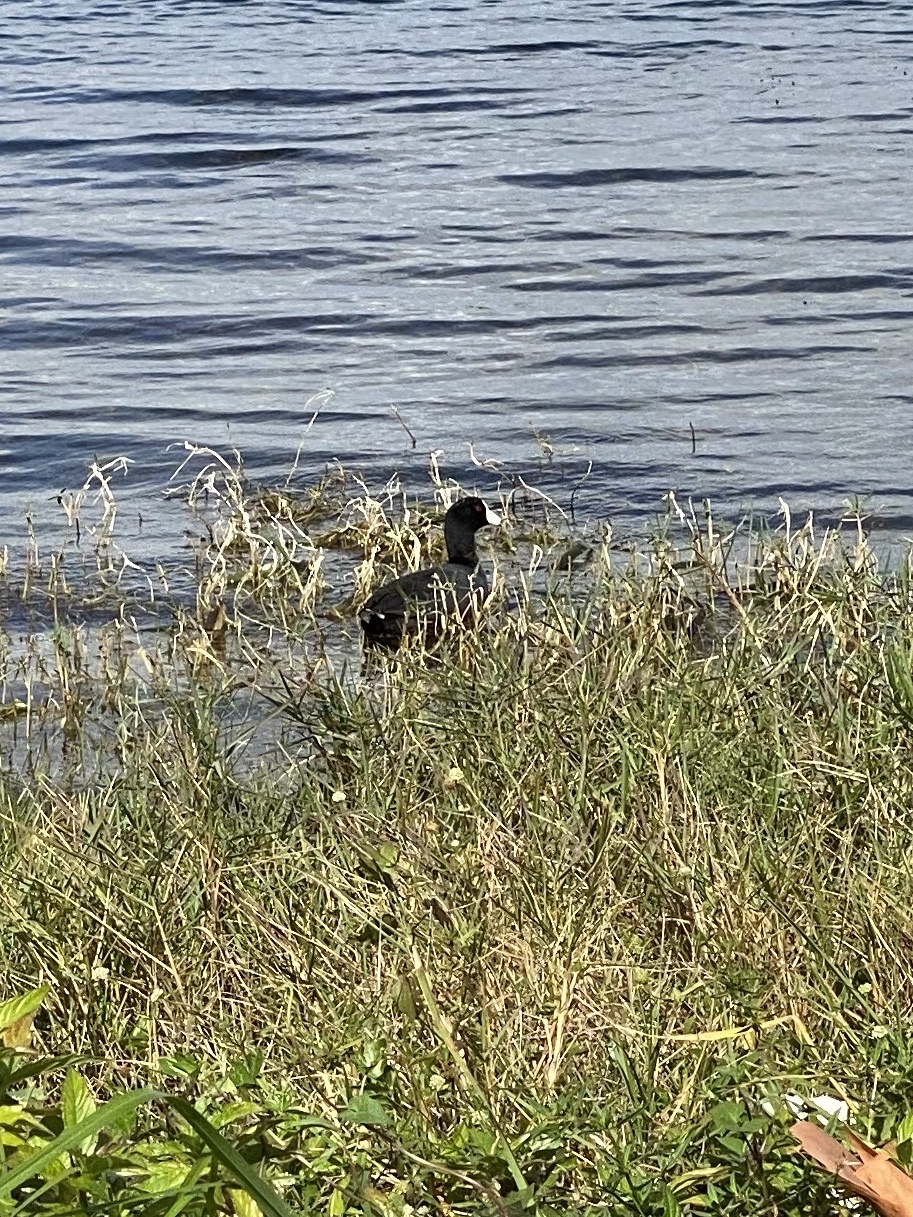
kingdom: Animalia
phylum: Chordata
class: Aves
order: Gruiformes
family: Rallidae
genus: Fulica
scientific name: Fulica americana
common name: American coot
